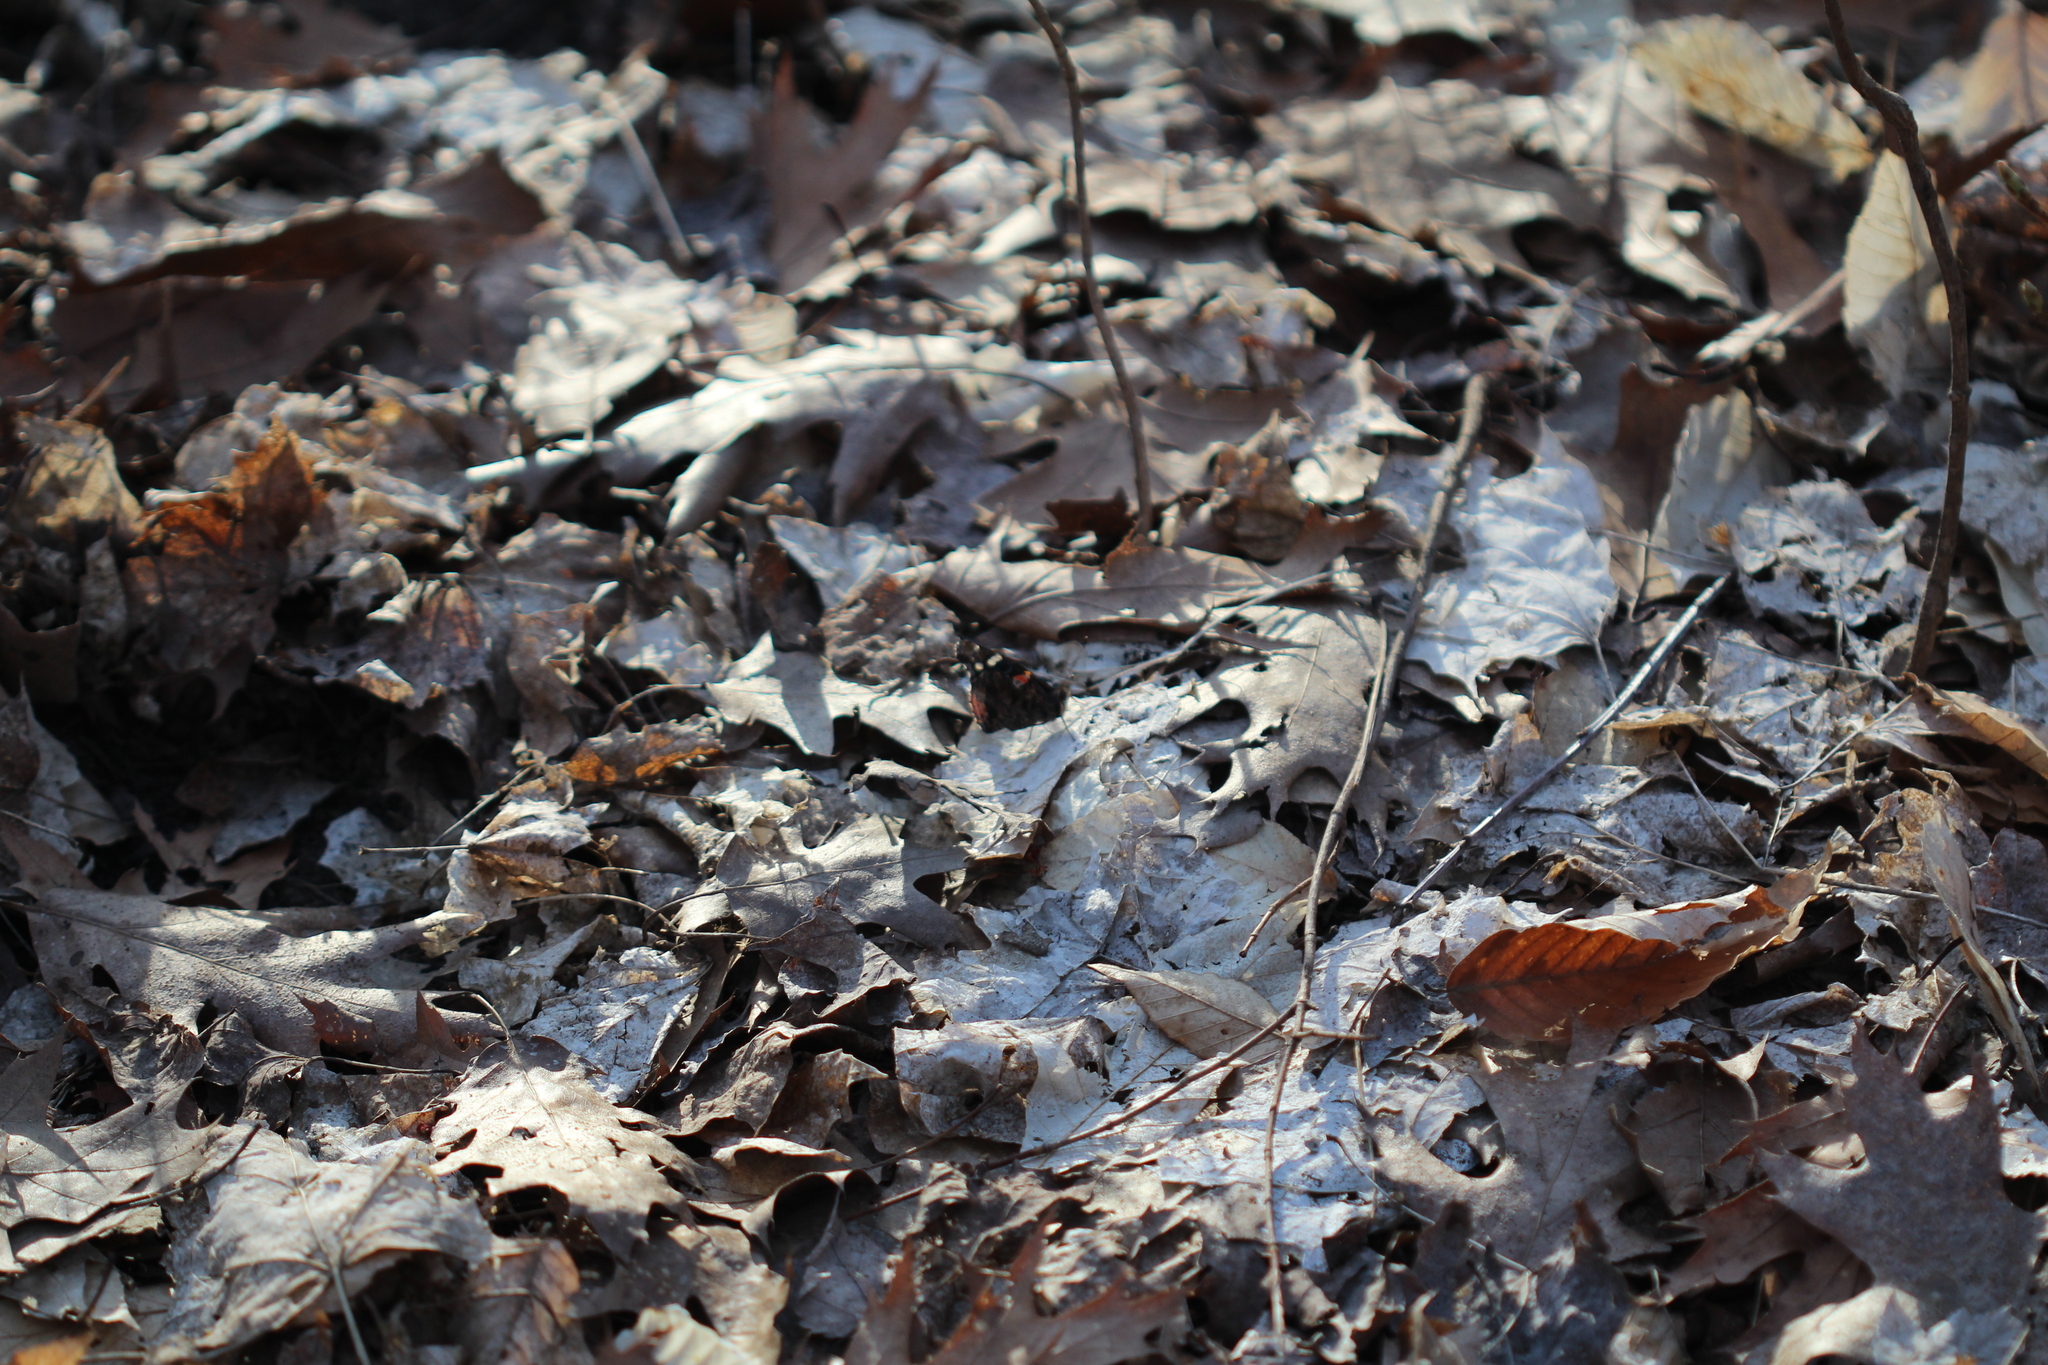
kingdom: Animalia
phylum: Arthropoda
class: Insecta
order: Lepidoptera
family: Nymphalidae
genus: Vanessa
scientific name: Vanessa atalanta
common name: Red admiral
